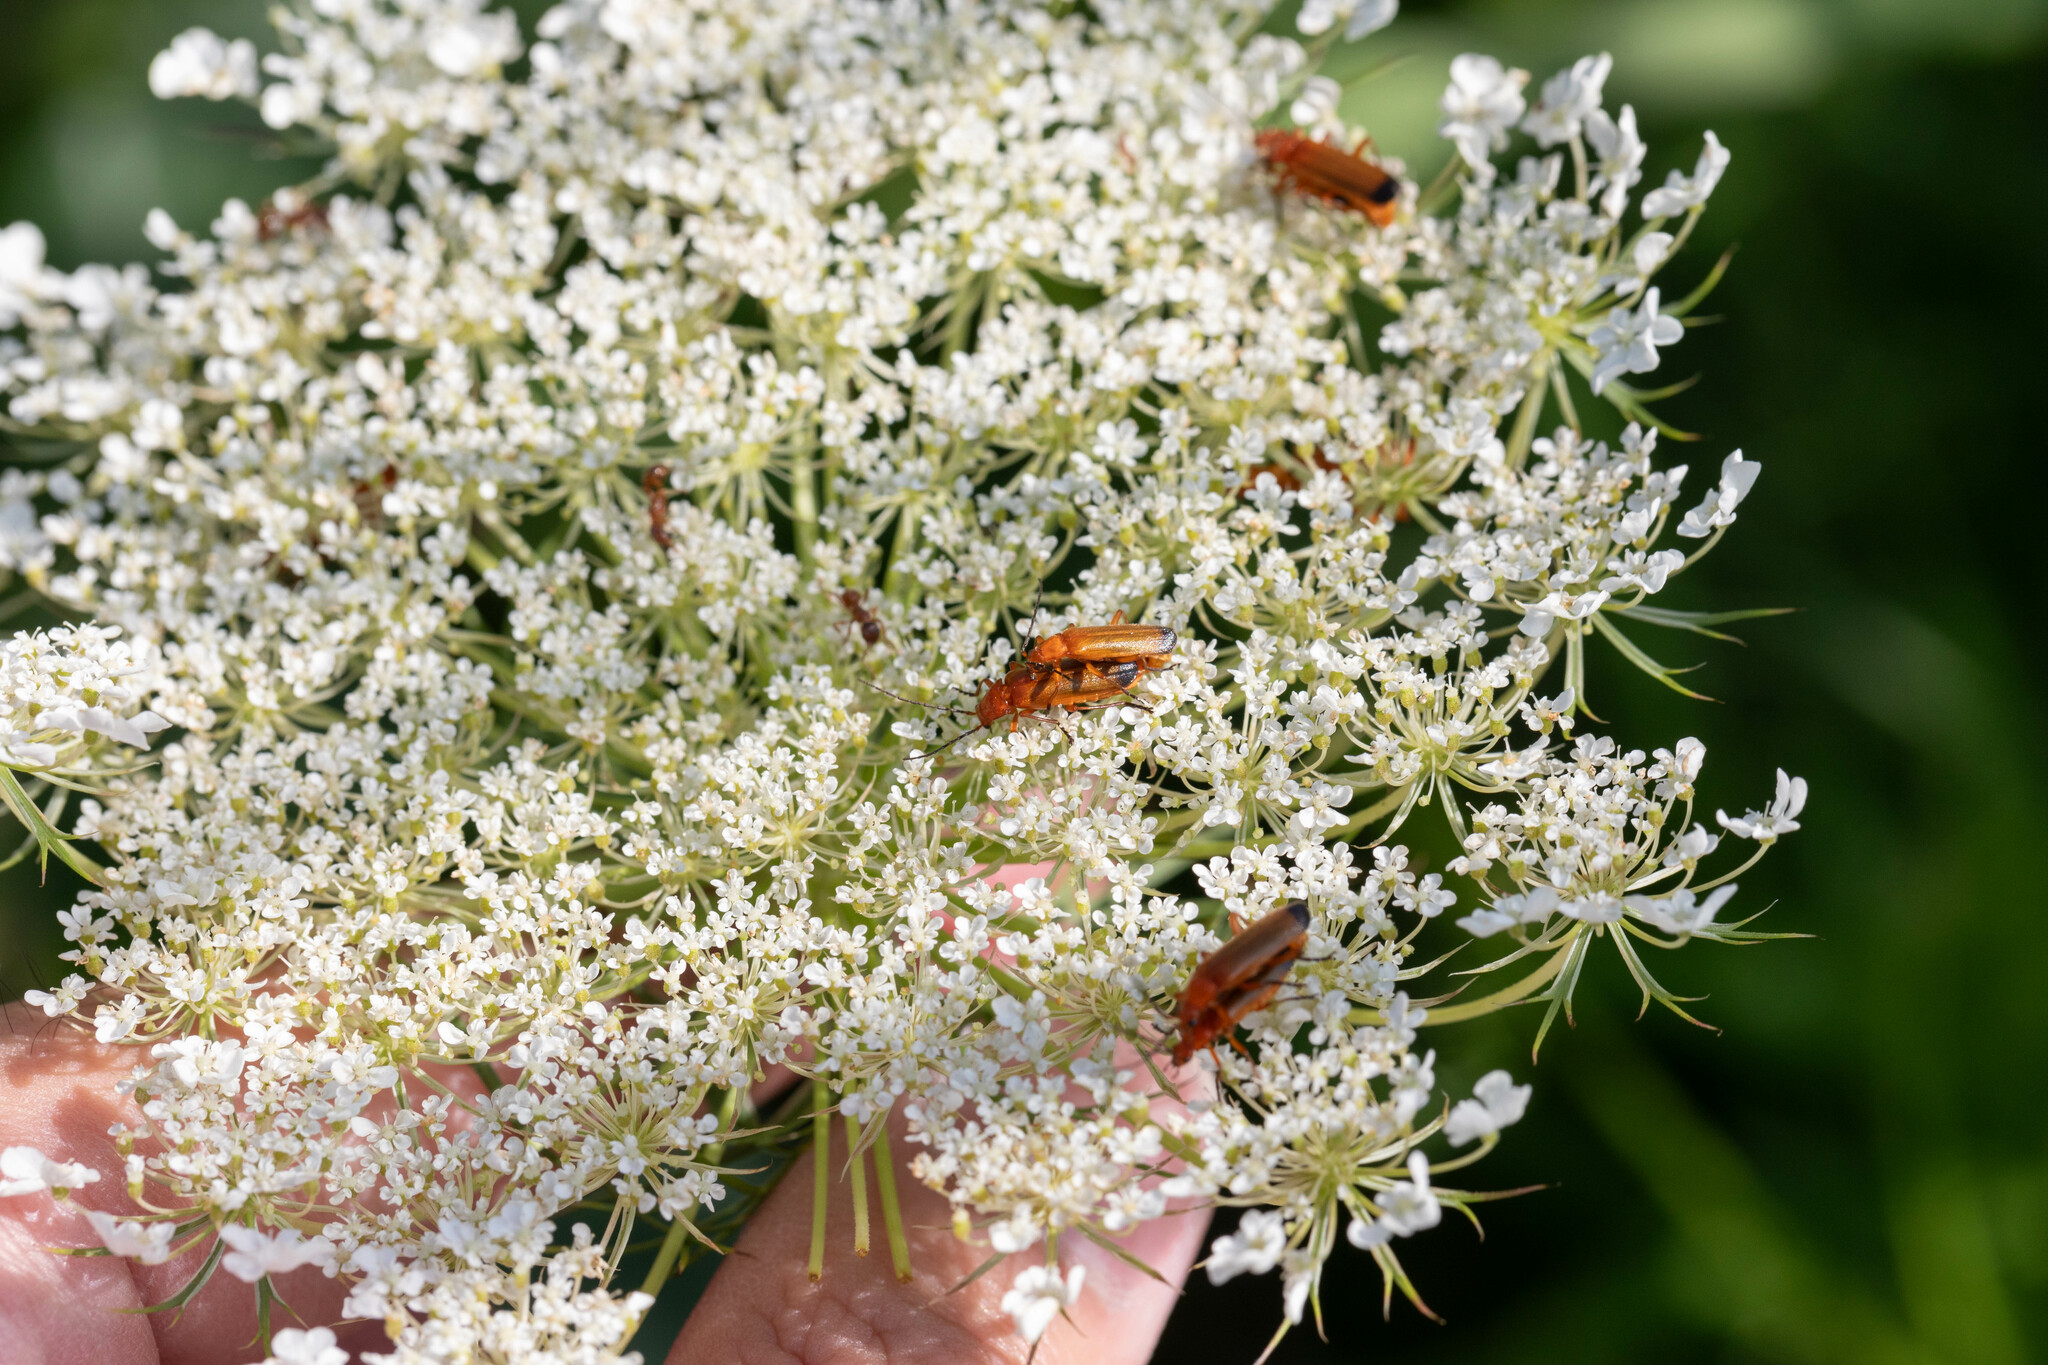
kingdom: Animalia
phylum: Arthropoda
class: Insecta
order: Coleoptera
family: Cantharidae
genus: Rhagonycha
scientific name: Rhagonycha fulva
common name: Common red soldier beetle
